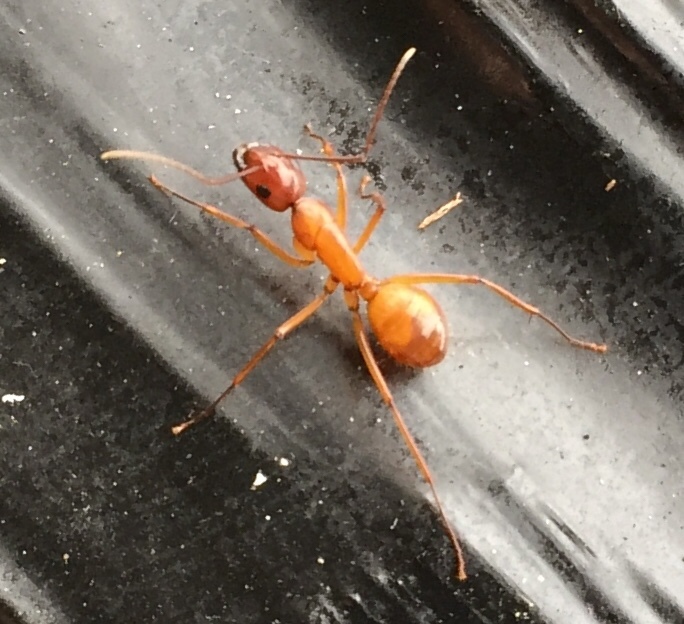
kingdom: Animalia
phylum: Arthropoda
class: Insecta
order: Hymenoptera
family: Formicidae
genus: Camponotus
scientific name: Camponotus castaneus
